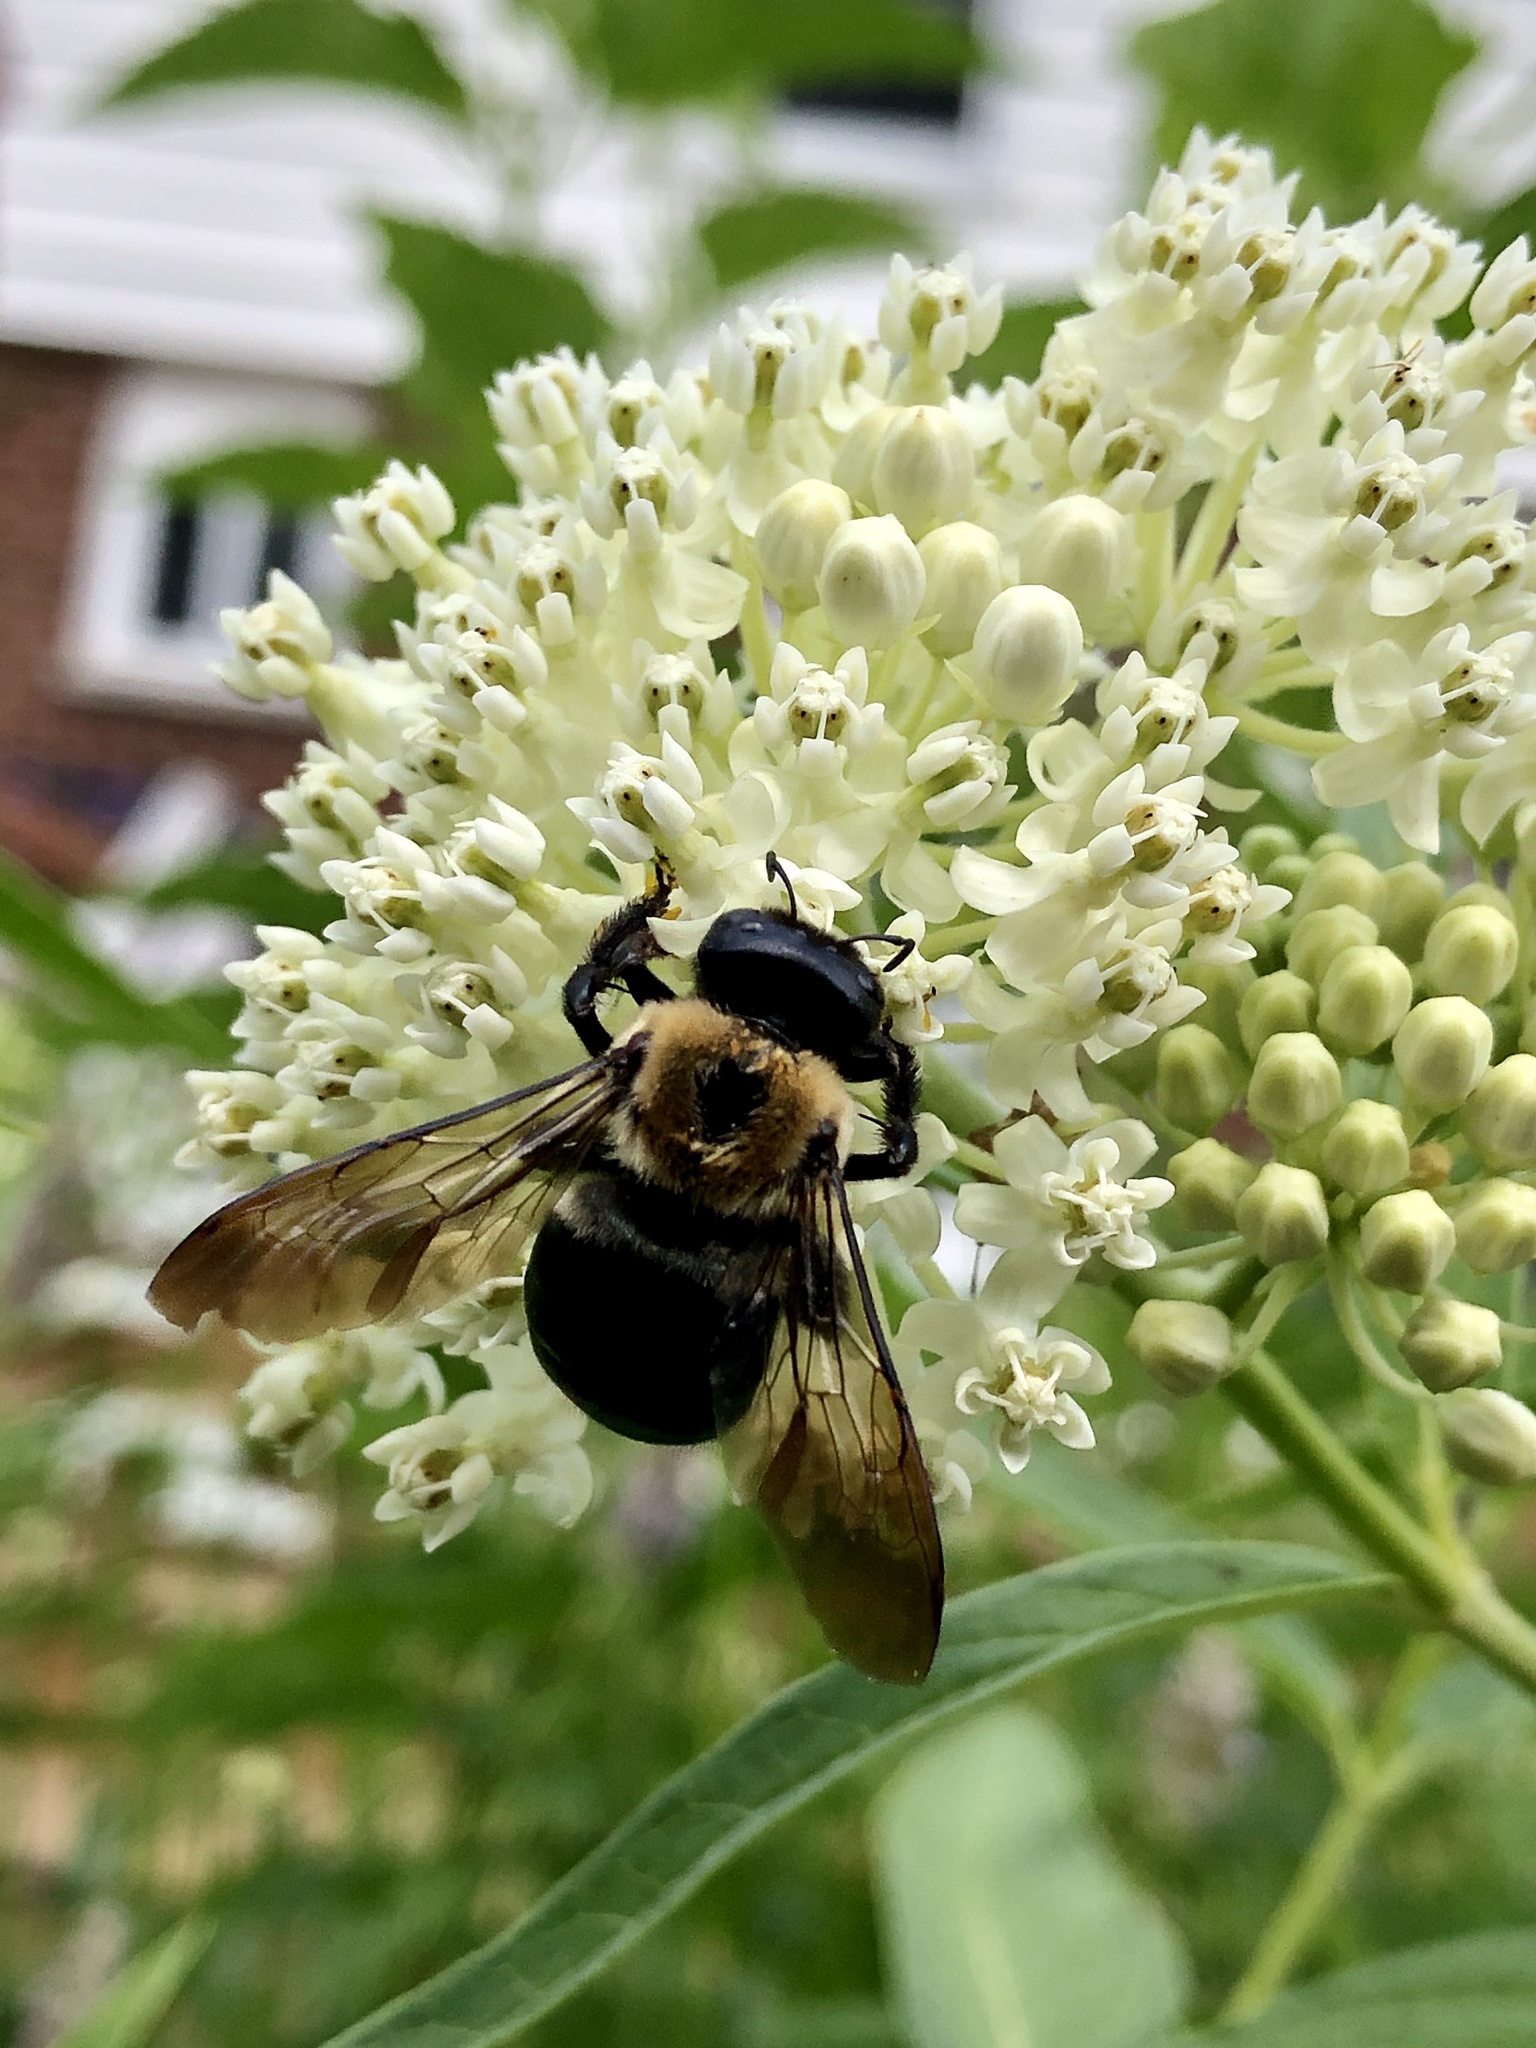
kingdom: Animalia
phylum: Arthropoda
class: Insecta
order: Hymenoptera
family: Apidae
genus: Xylocopa
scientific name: Xylocopa virginica
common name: Carpenter bee
